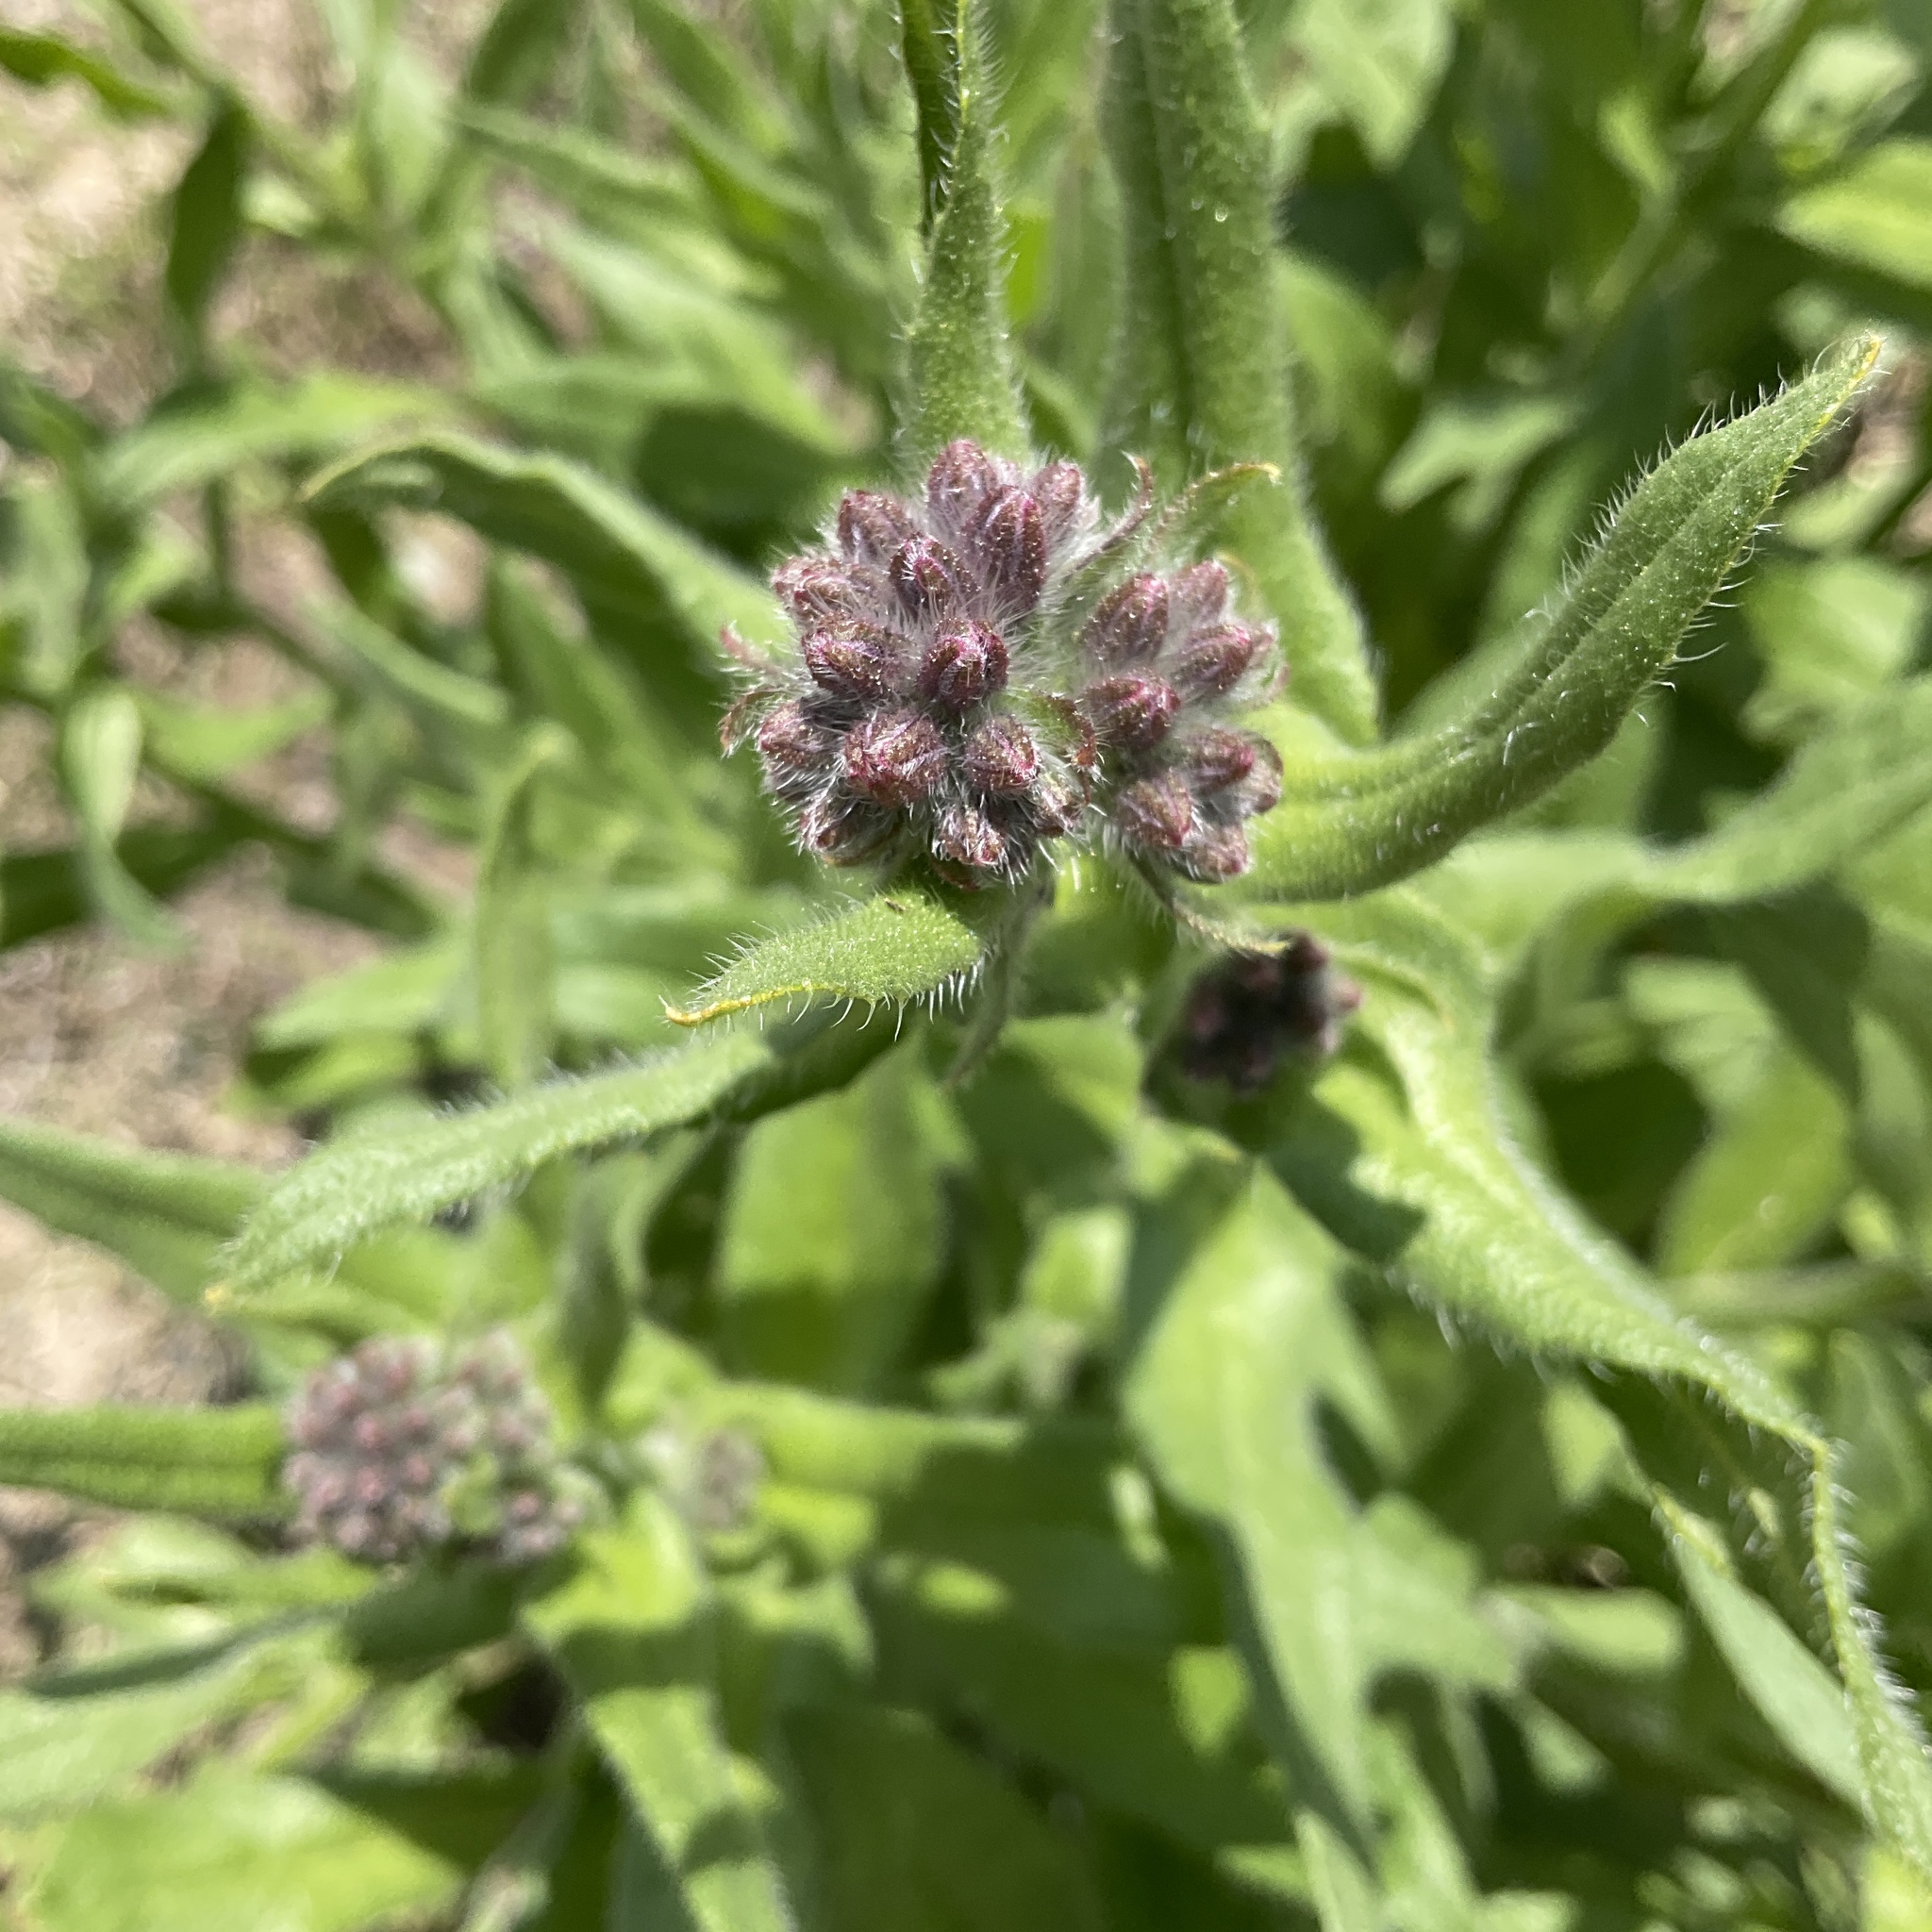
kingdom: Plantae
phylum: Tracheophyta
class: Magnoliopsida
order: Boraginales
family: Boraginaceae
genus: Anchusa
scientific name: Anchusa officinalis
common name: Alkanet
